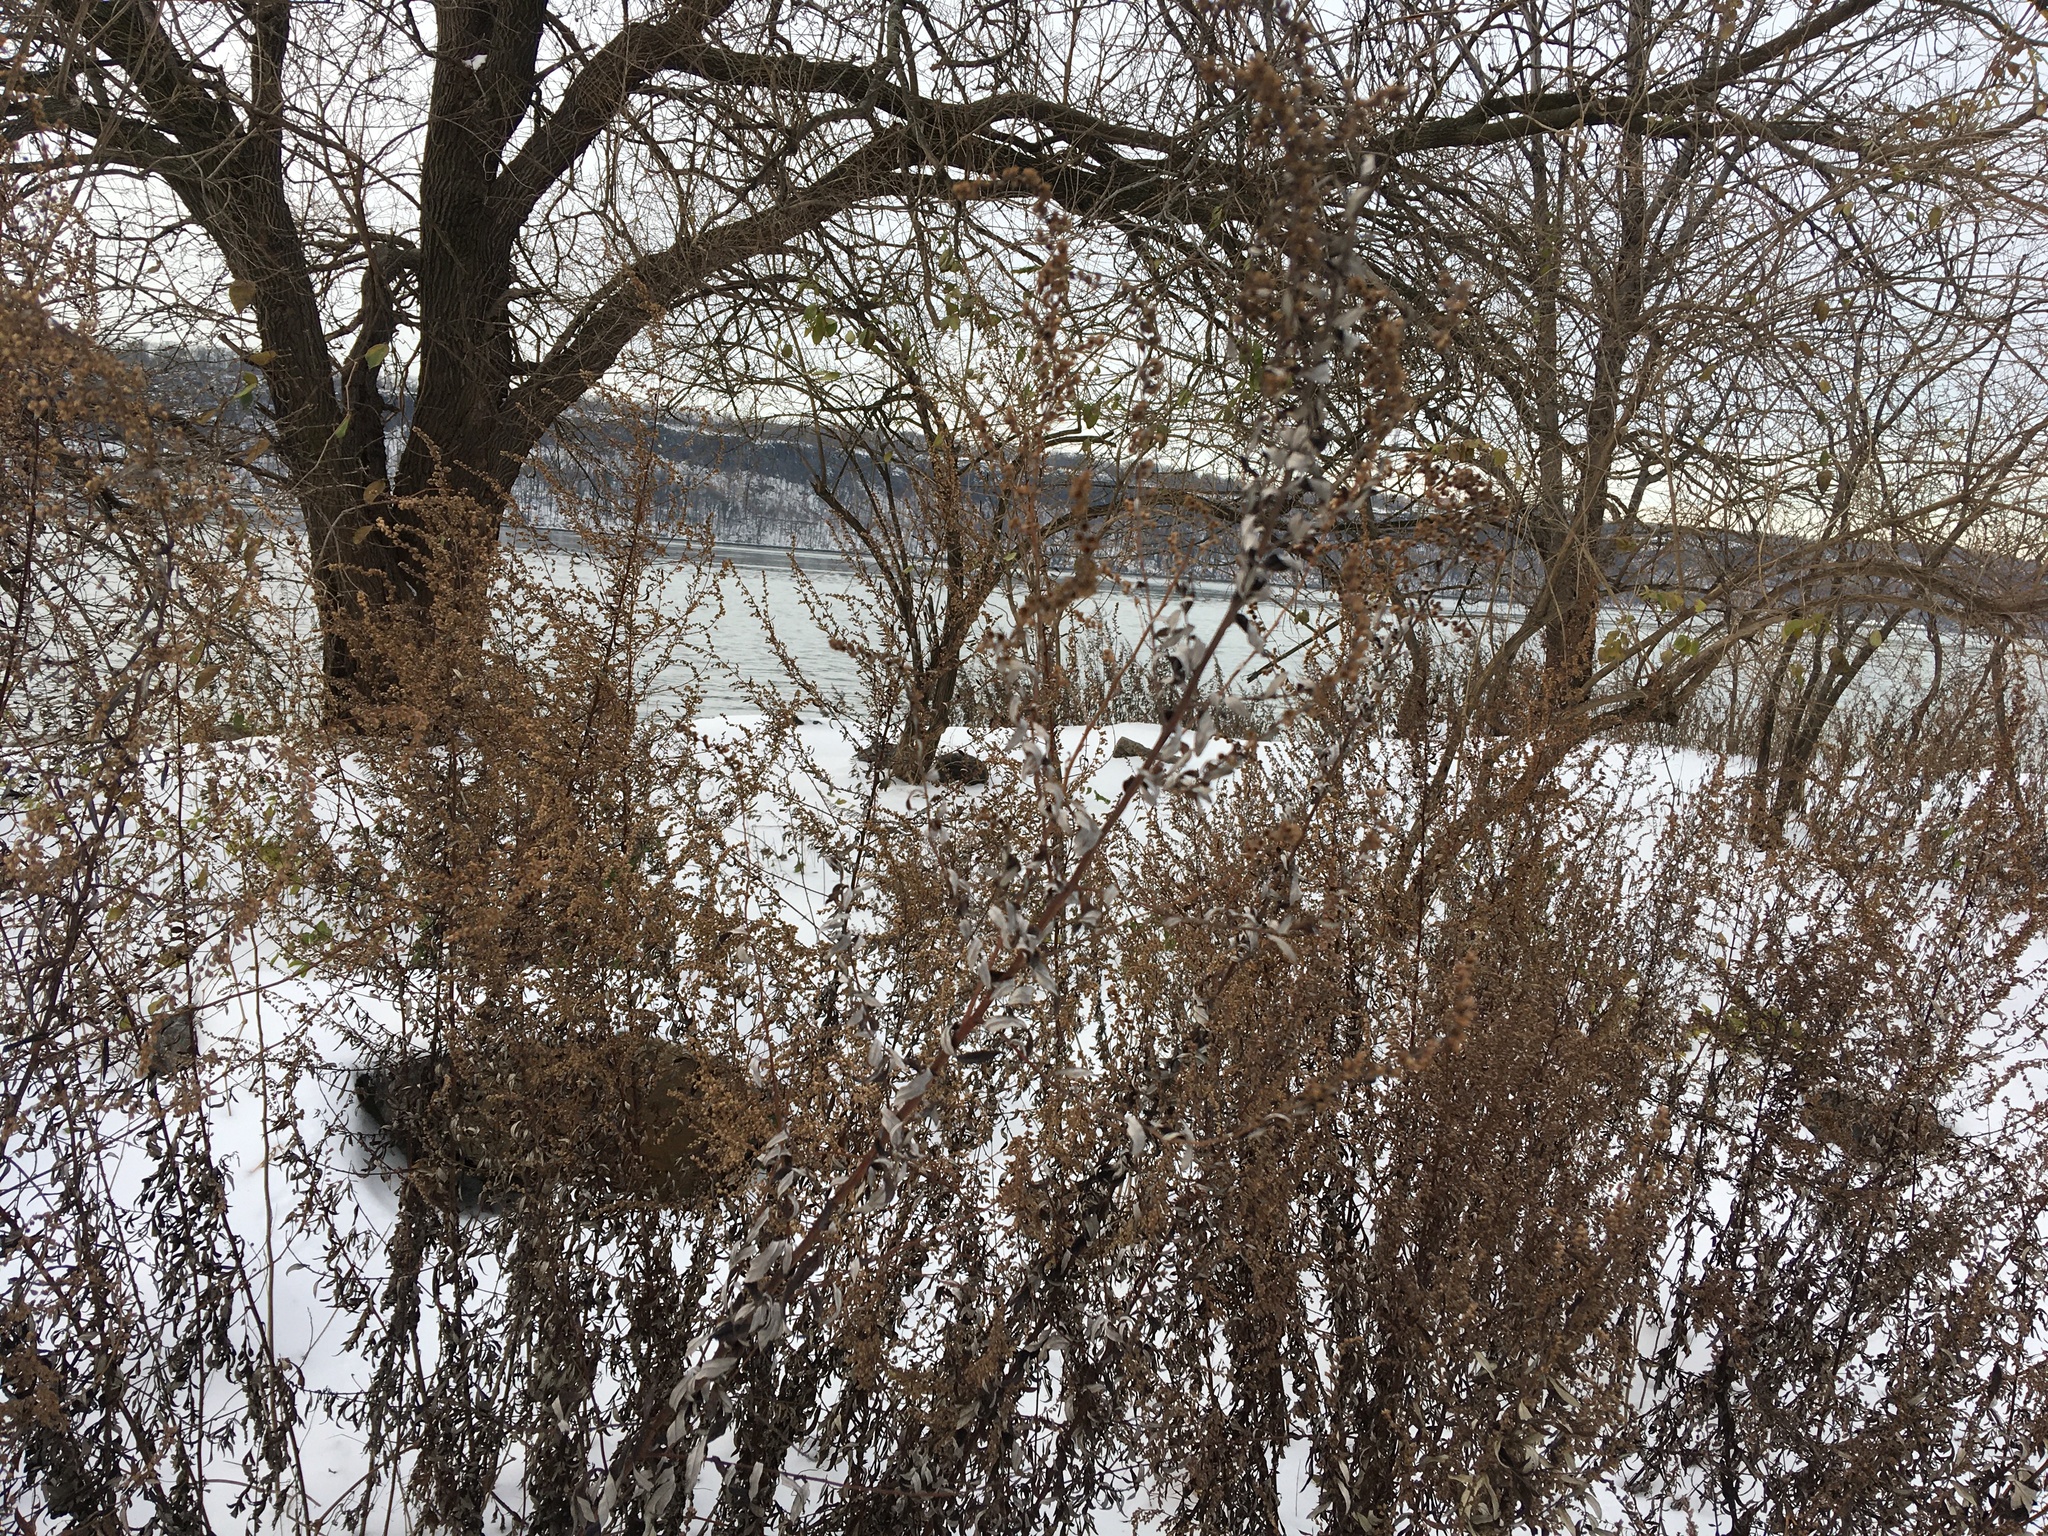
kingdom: Plantae
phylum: Tracheophyta
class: Magnoliopsida
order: Asterales
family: Asteraceae
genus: Artemisia
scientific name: Artemisia vulgaris
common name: Mugwort
